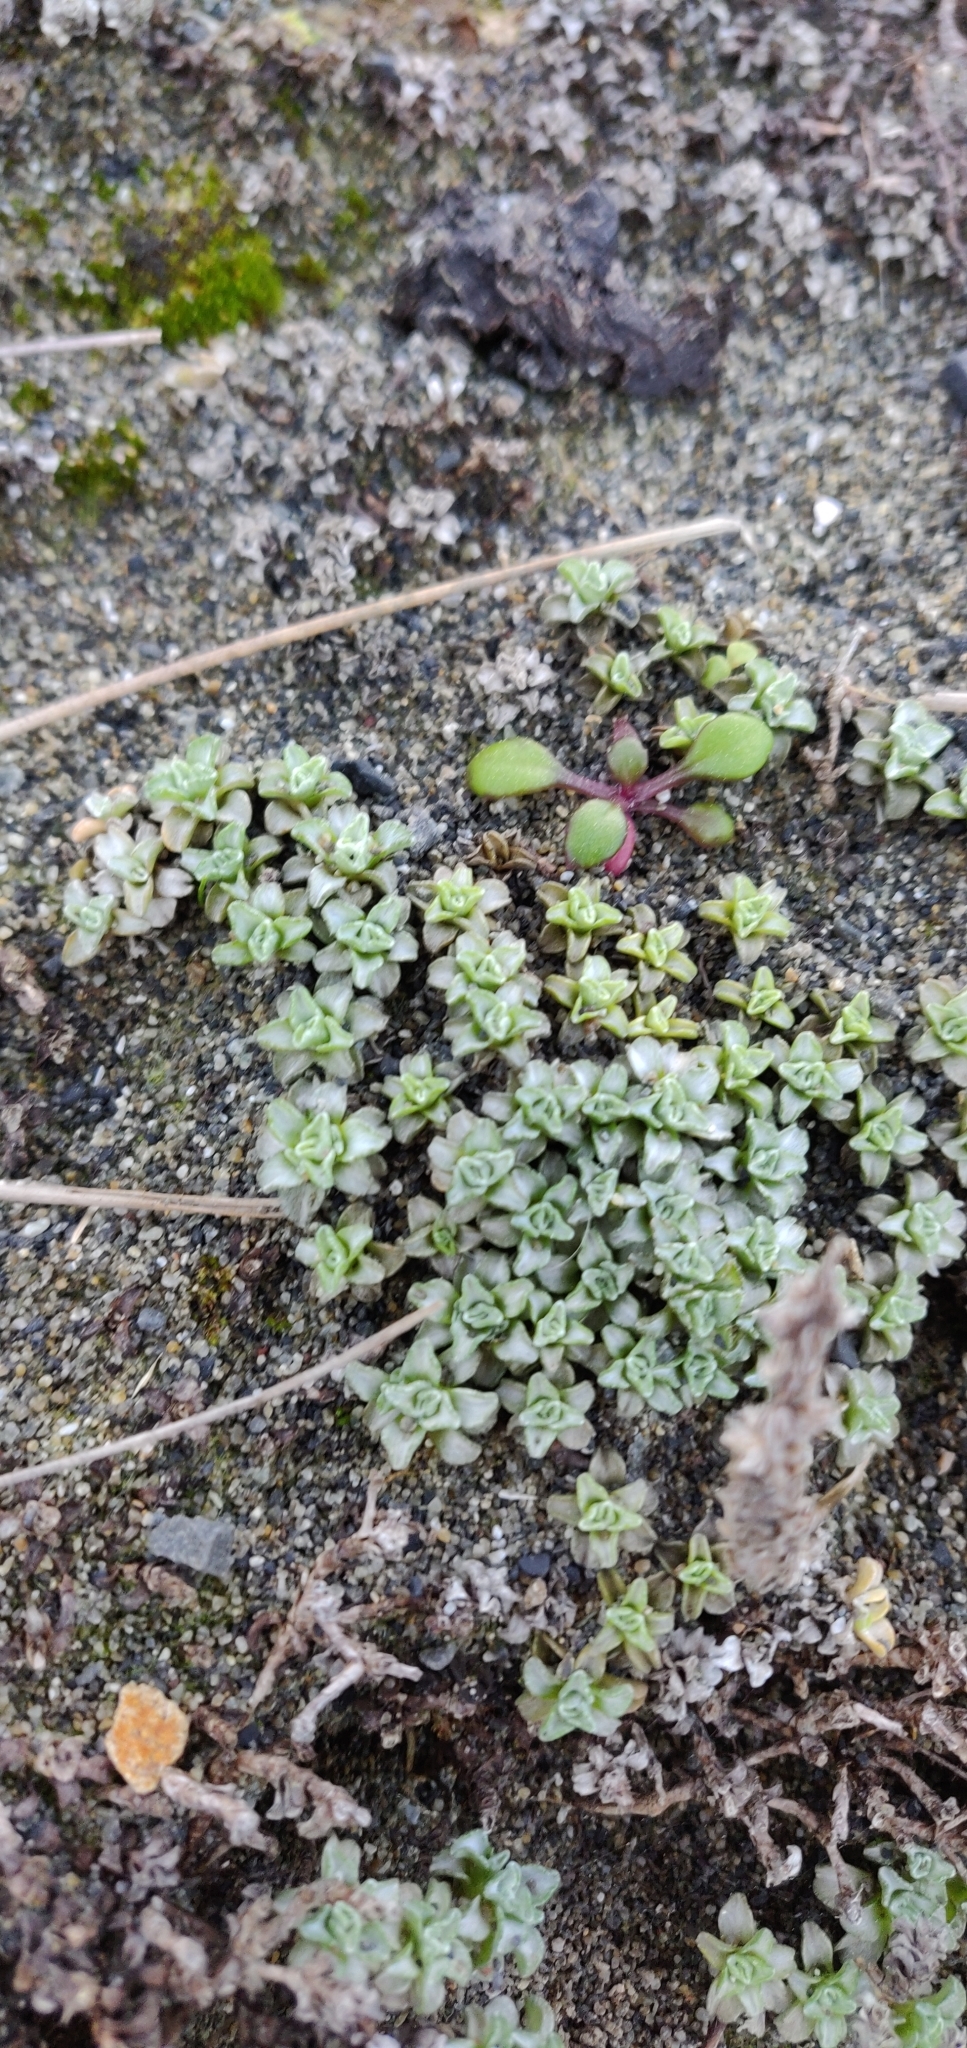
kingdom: Plantae
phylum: Tracheophyta
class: Magnoliopsida
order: Asterales
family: Asteraceae
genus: Raoulia
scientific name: Raoulia hookeri
